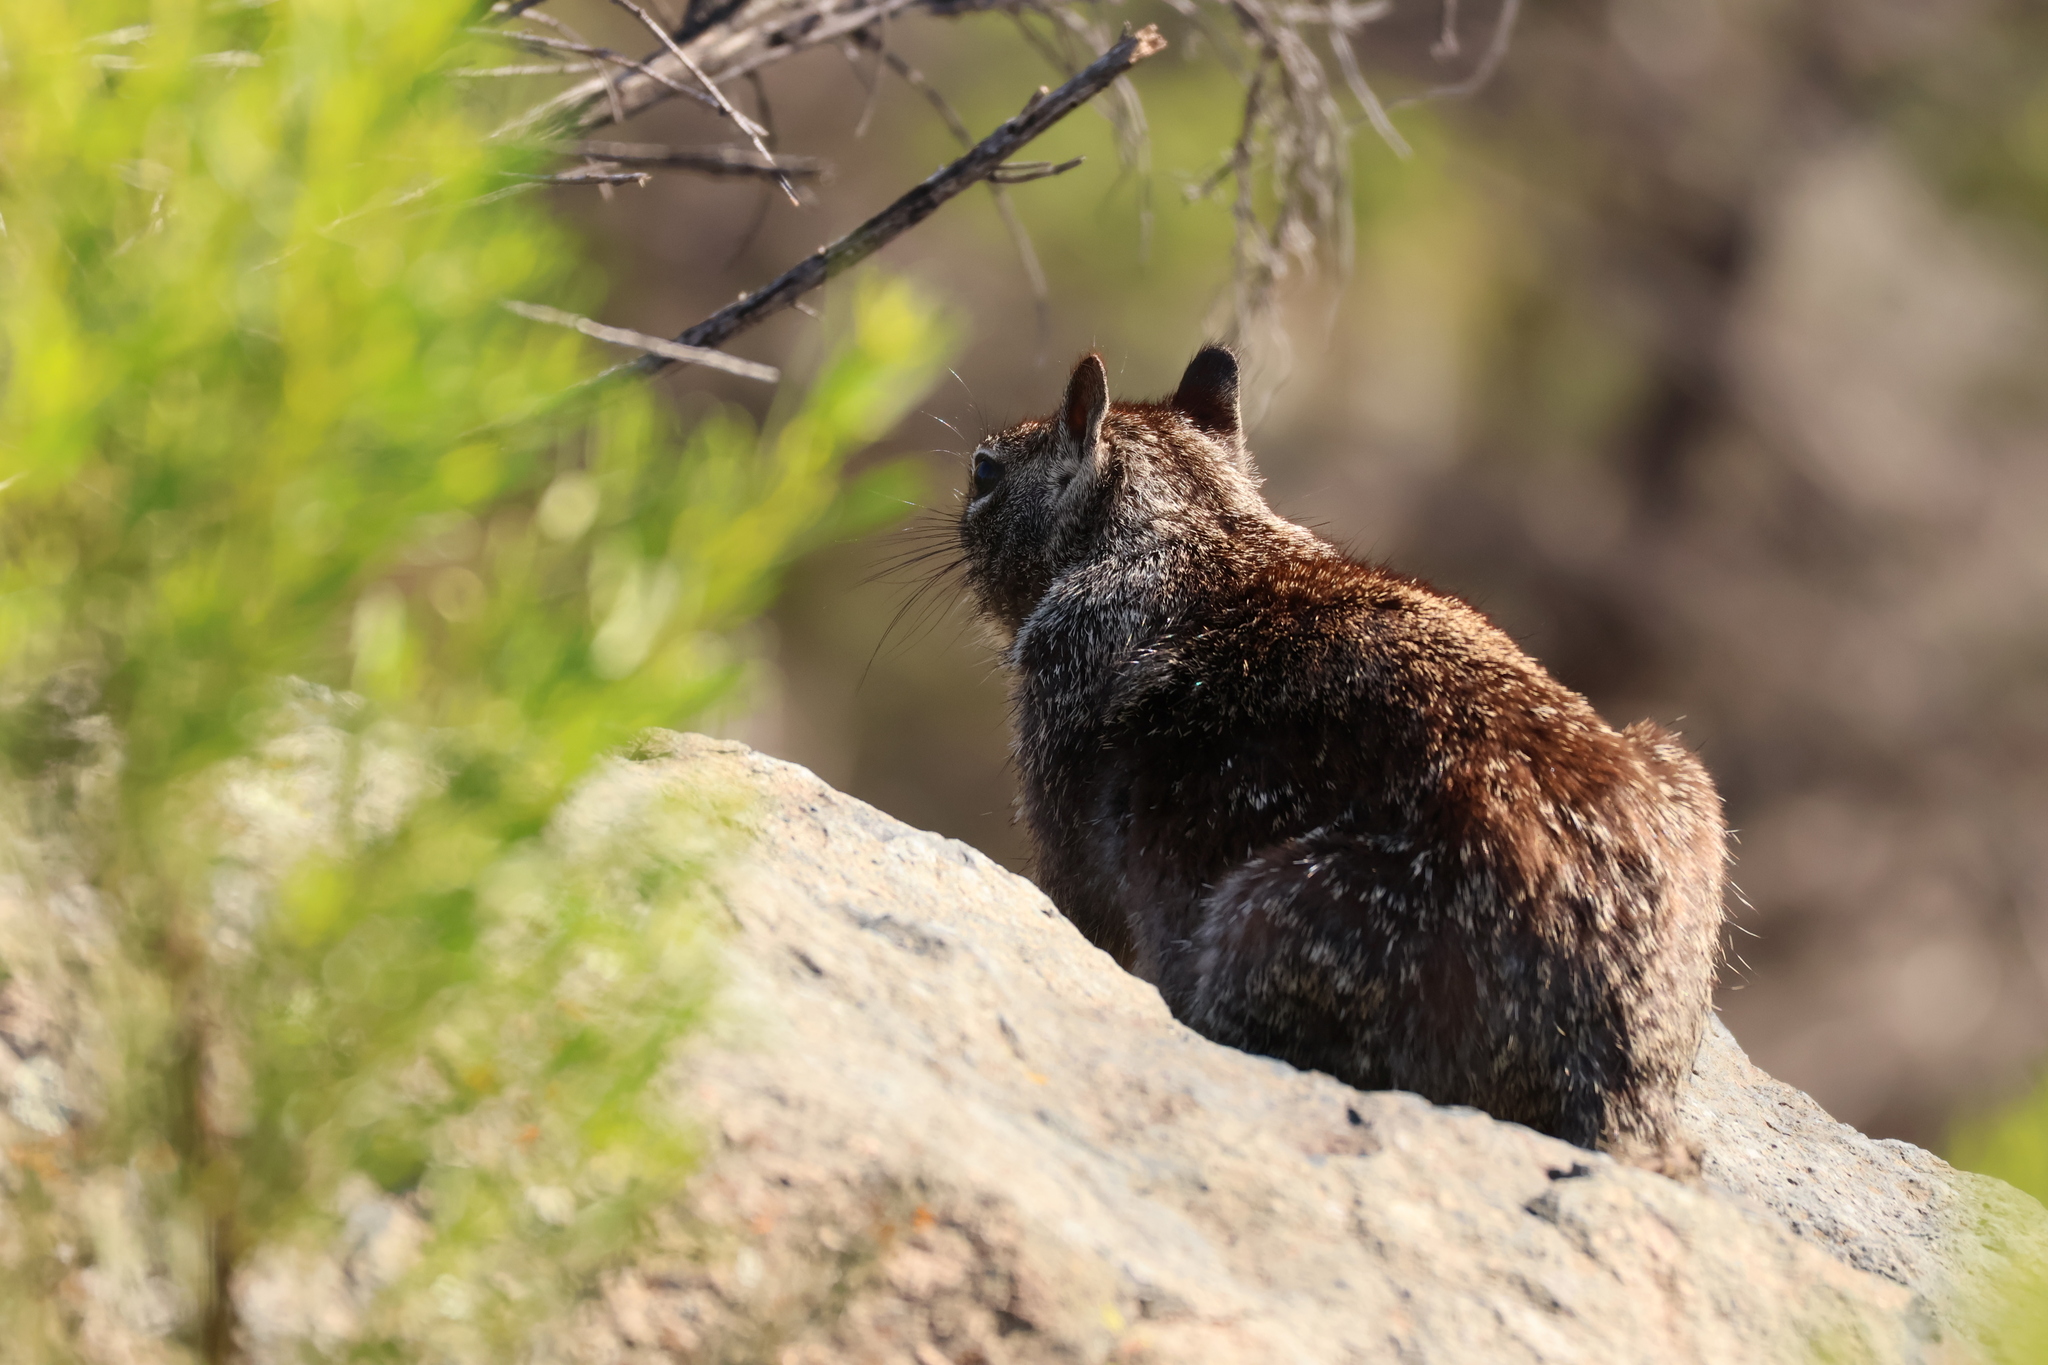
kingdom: Animalia
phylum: Chordata
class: Mammalia
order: Rodentia
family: Sciuridae
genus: Otospermophilus
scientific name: Otospermophilus beecheyi
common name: California ground squirrel
